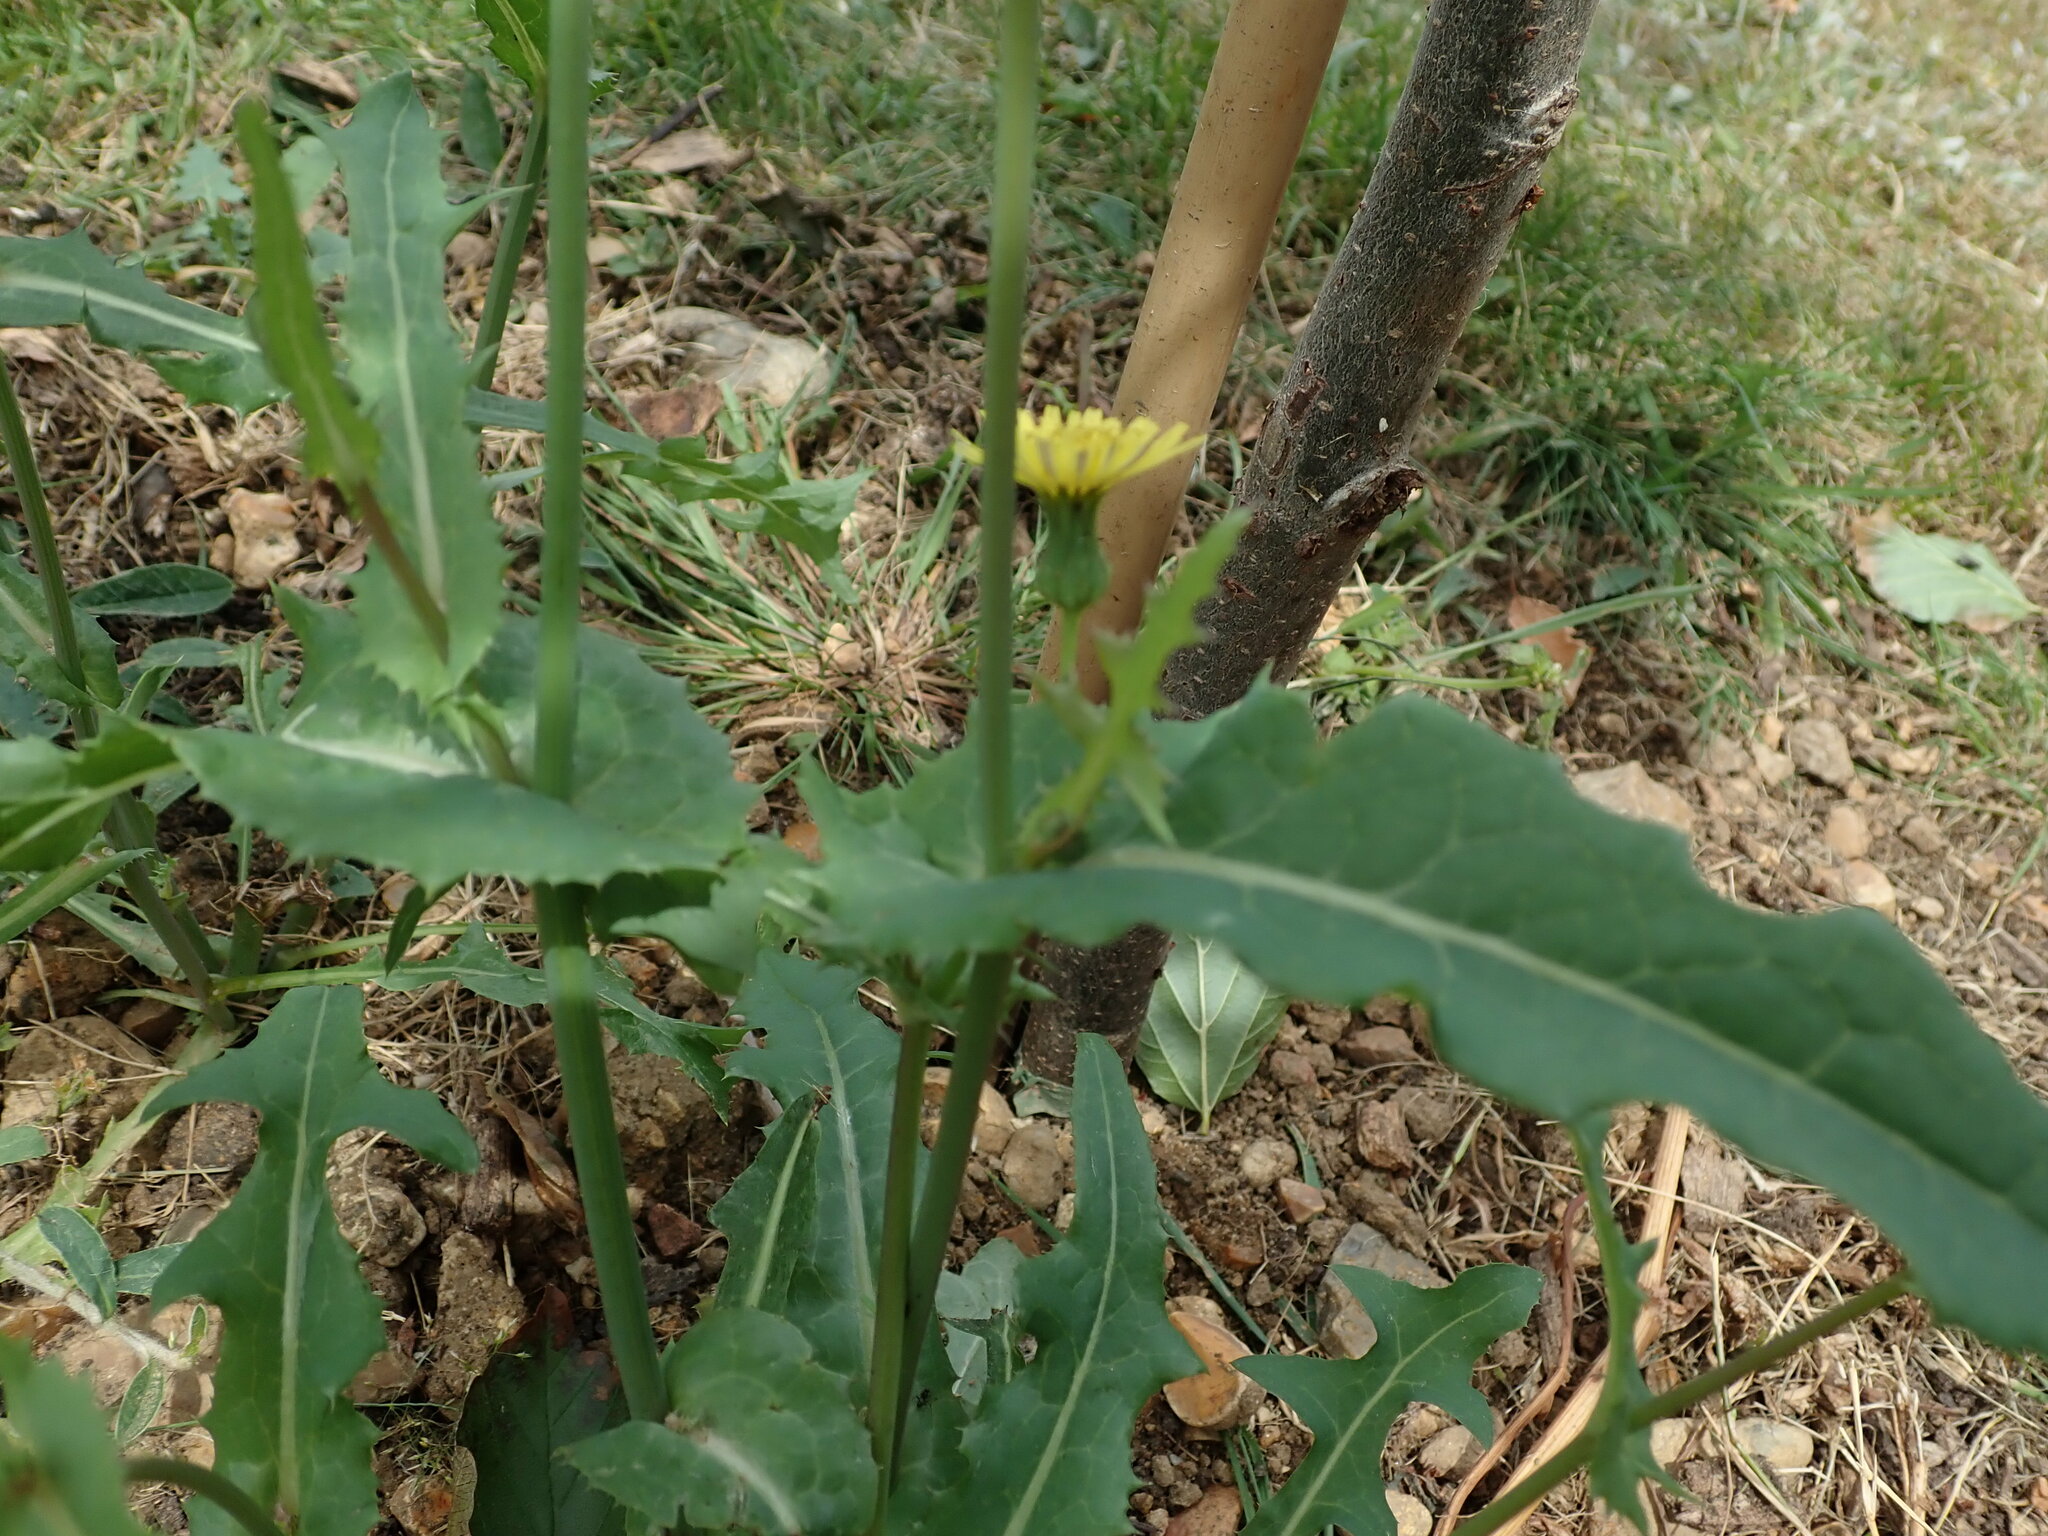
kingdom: Plantae
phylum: Tracheophyta
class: Magnoliopsida
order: Asterales
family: Asteraceae
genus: Sonchus
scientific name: Sonchus oleraceus
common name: Common sowthistle
